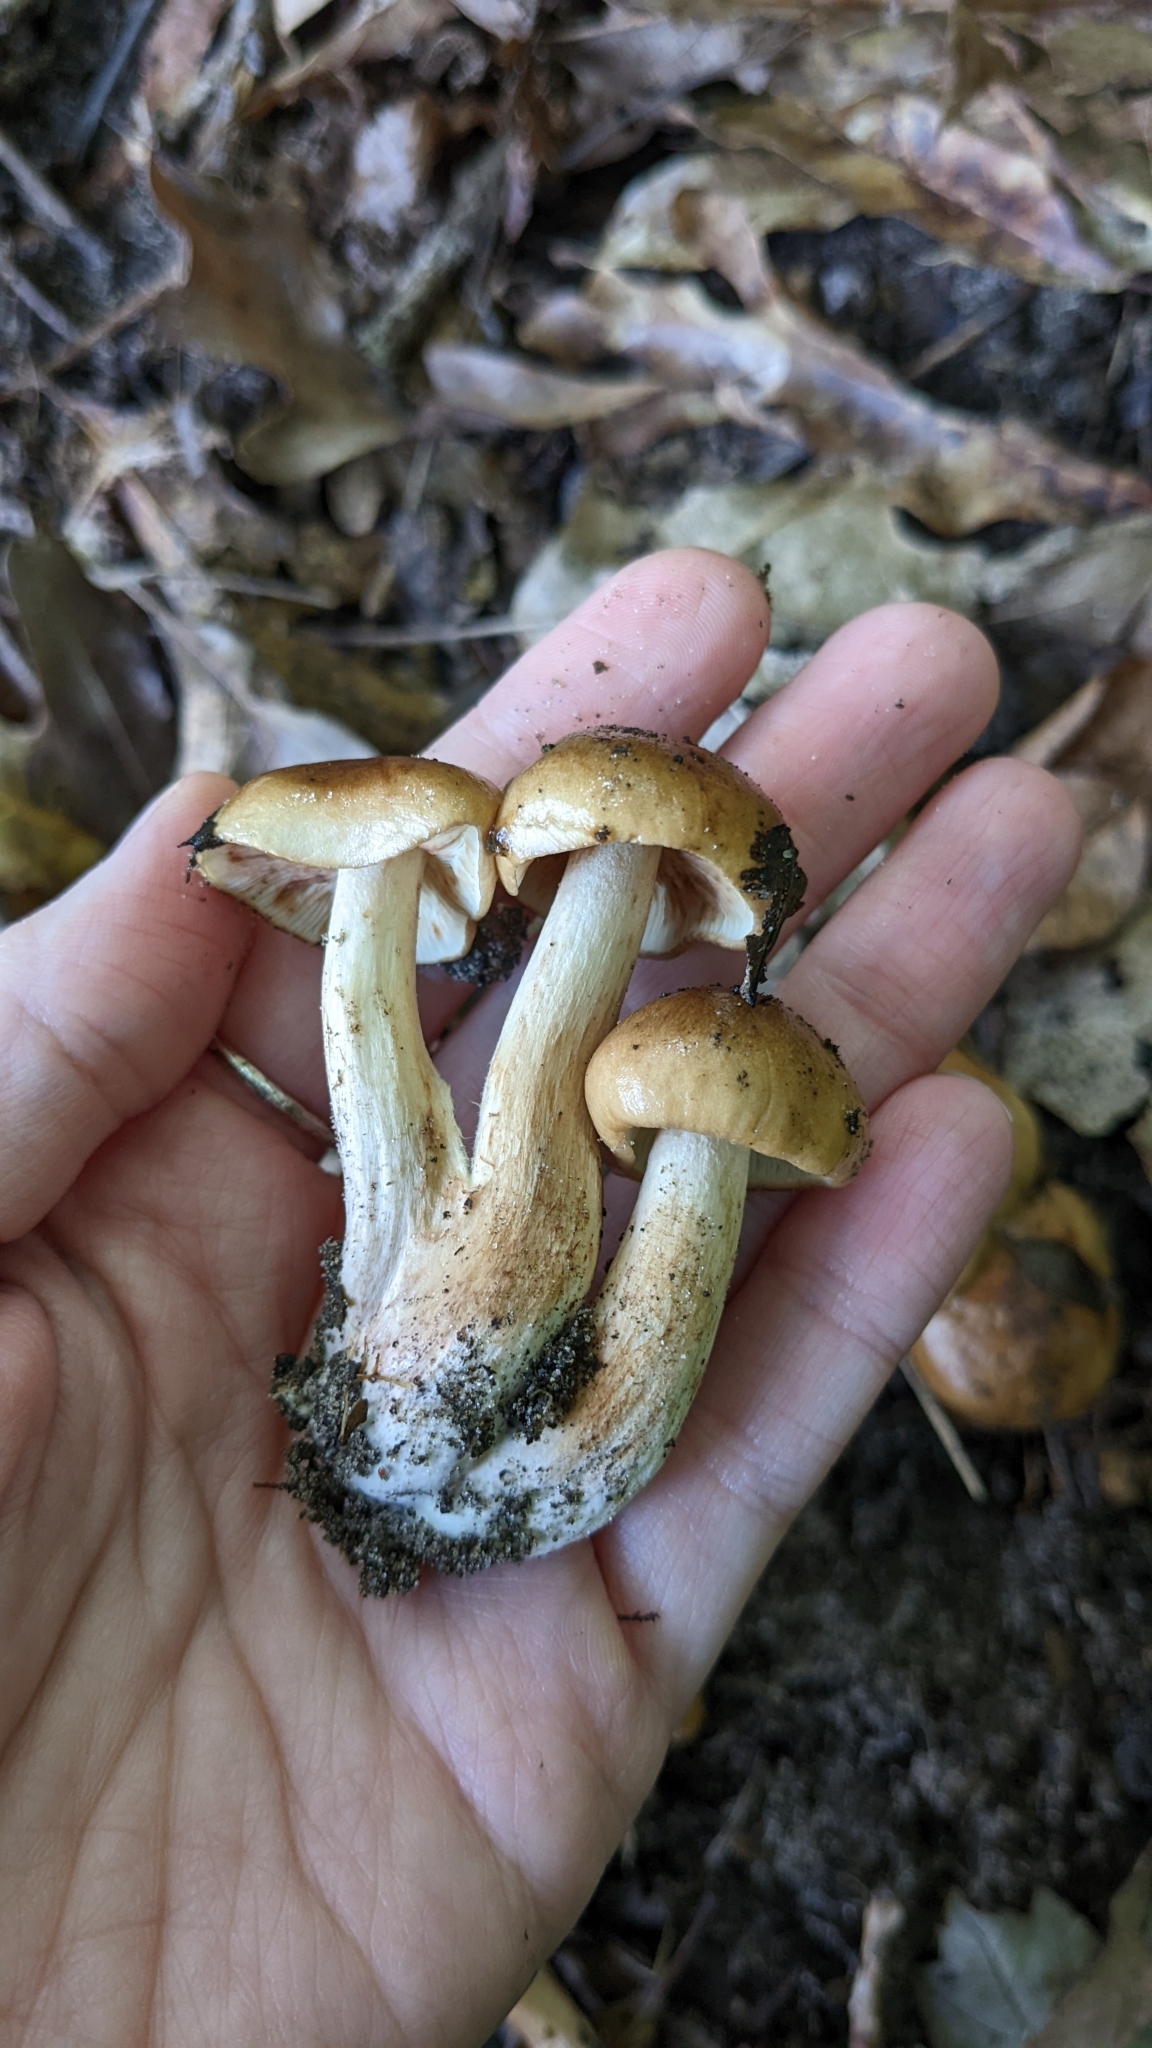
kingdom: Fungi
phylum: Basidiomycota
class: Agaricomycetes
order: Agaricales
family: Tricholomataceae
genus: Tricholoma
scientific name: Tricholoma brunneoluteum
